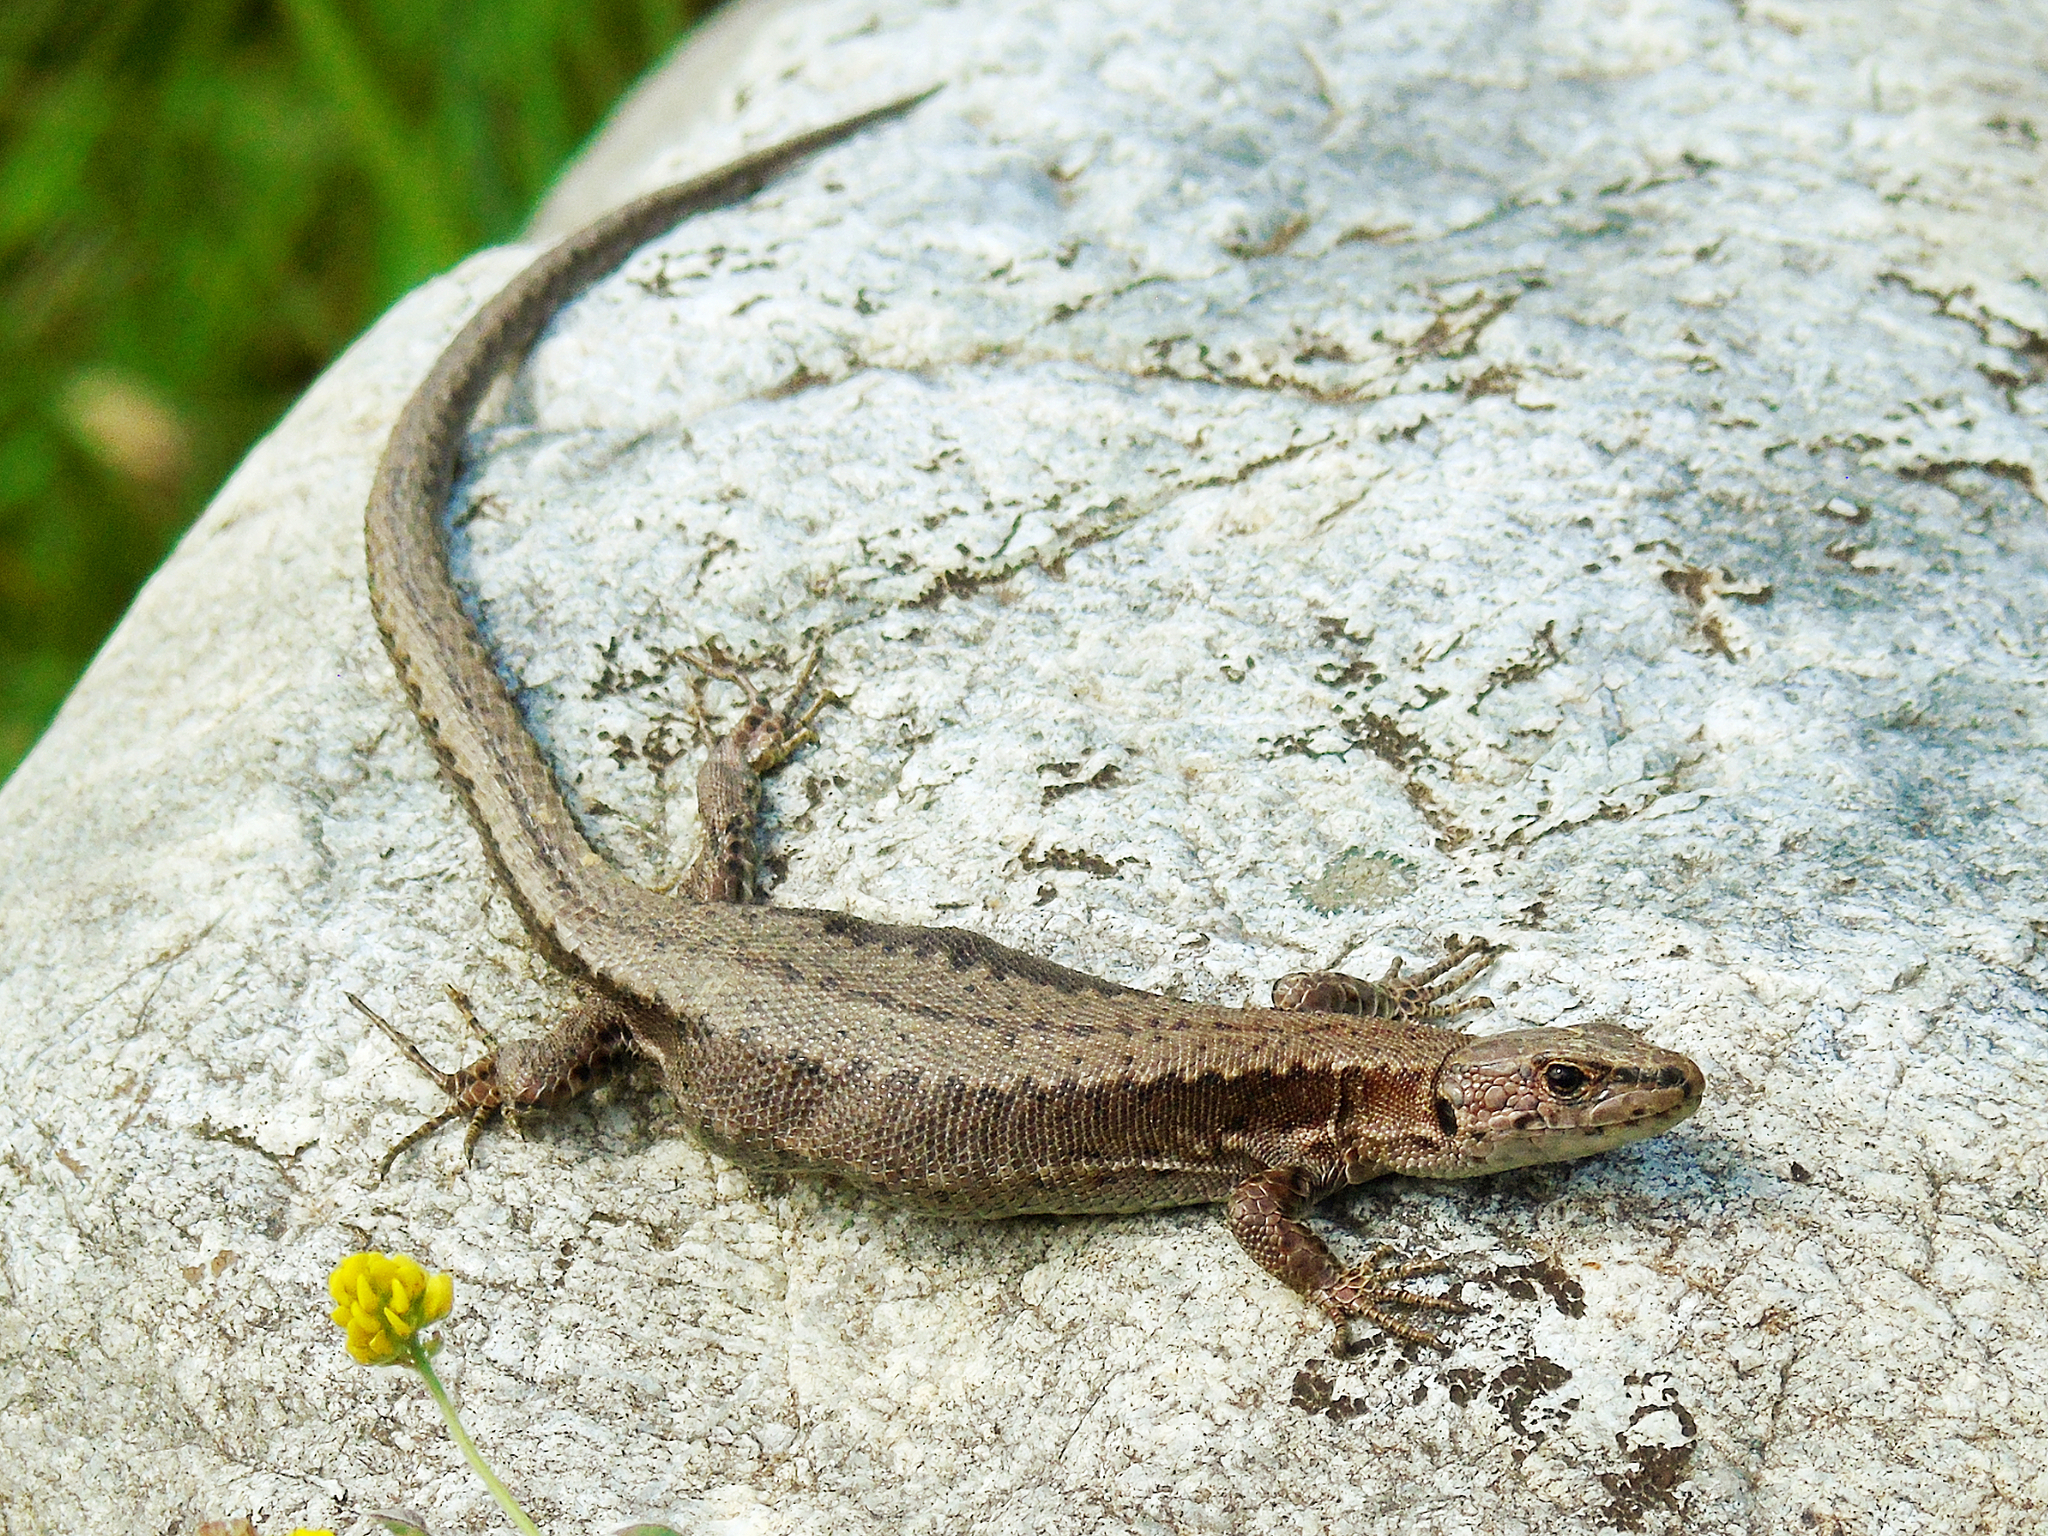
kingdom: Animalia
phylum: Chordata
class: Squamata
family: Lacertidae
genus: Darevskia
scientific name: Darevskia derjugini
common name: Derjugin's lizard
